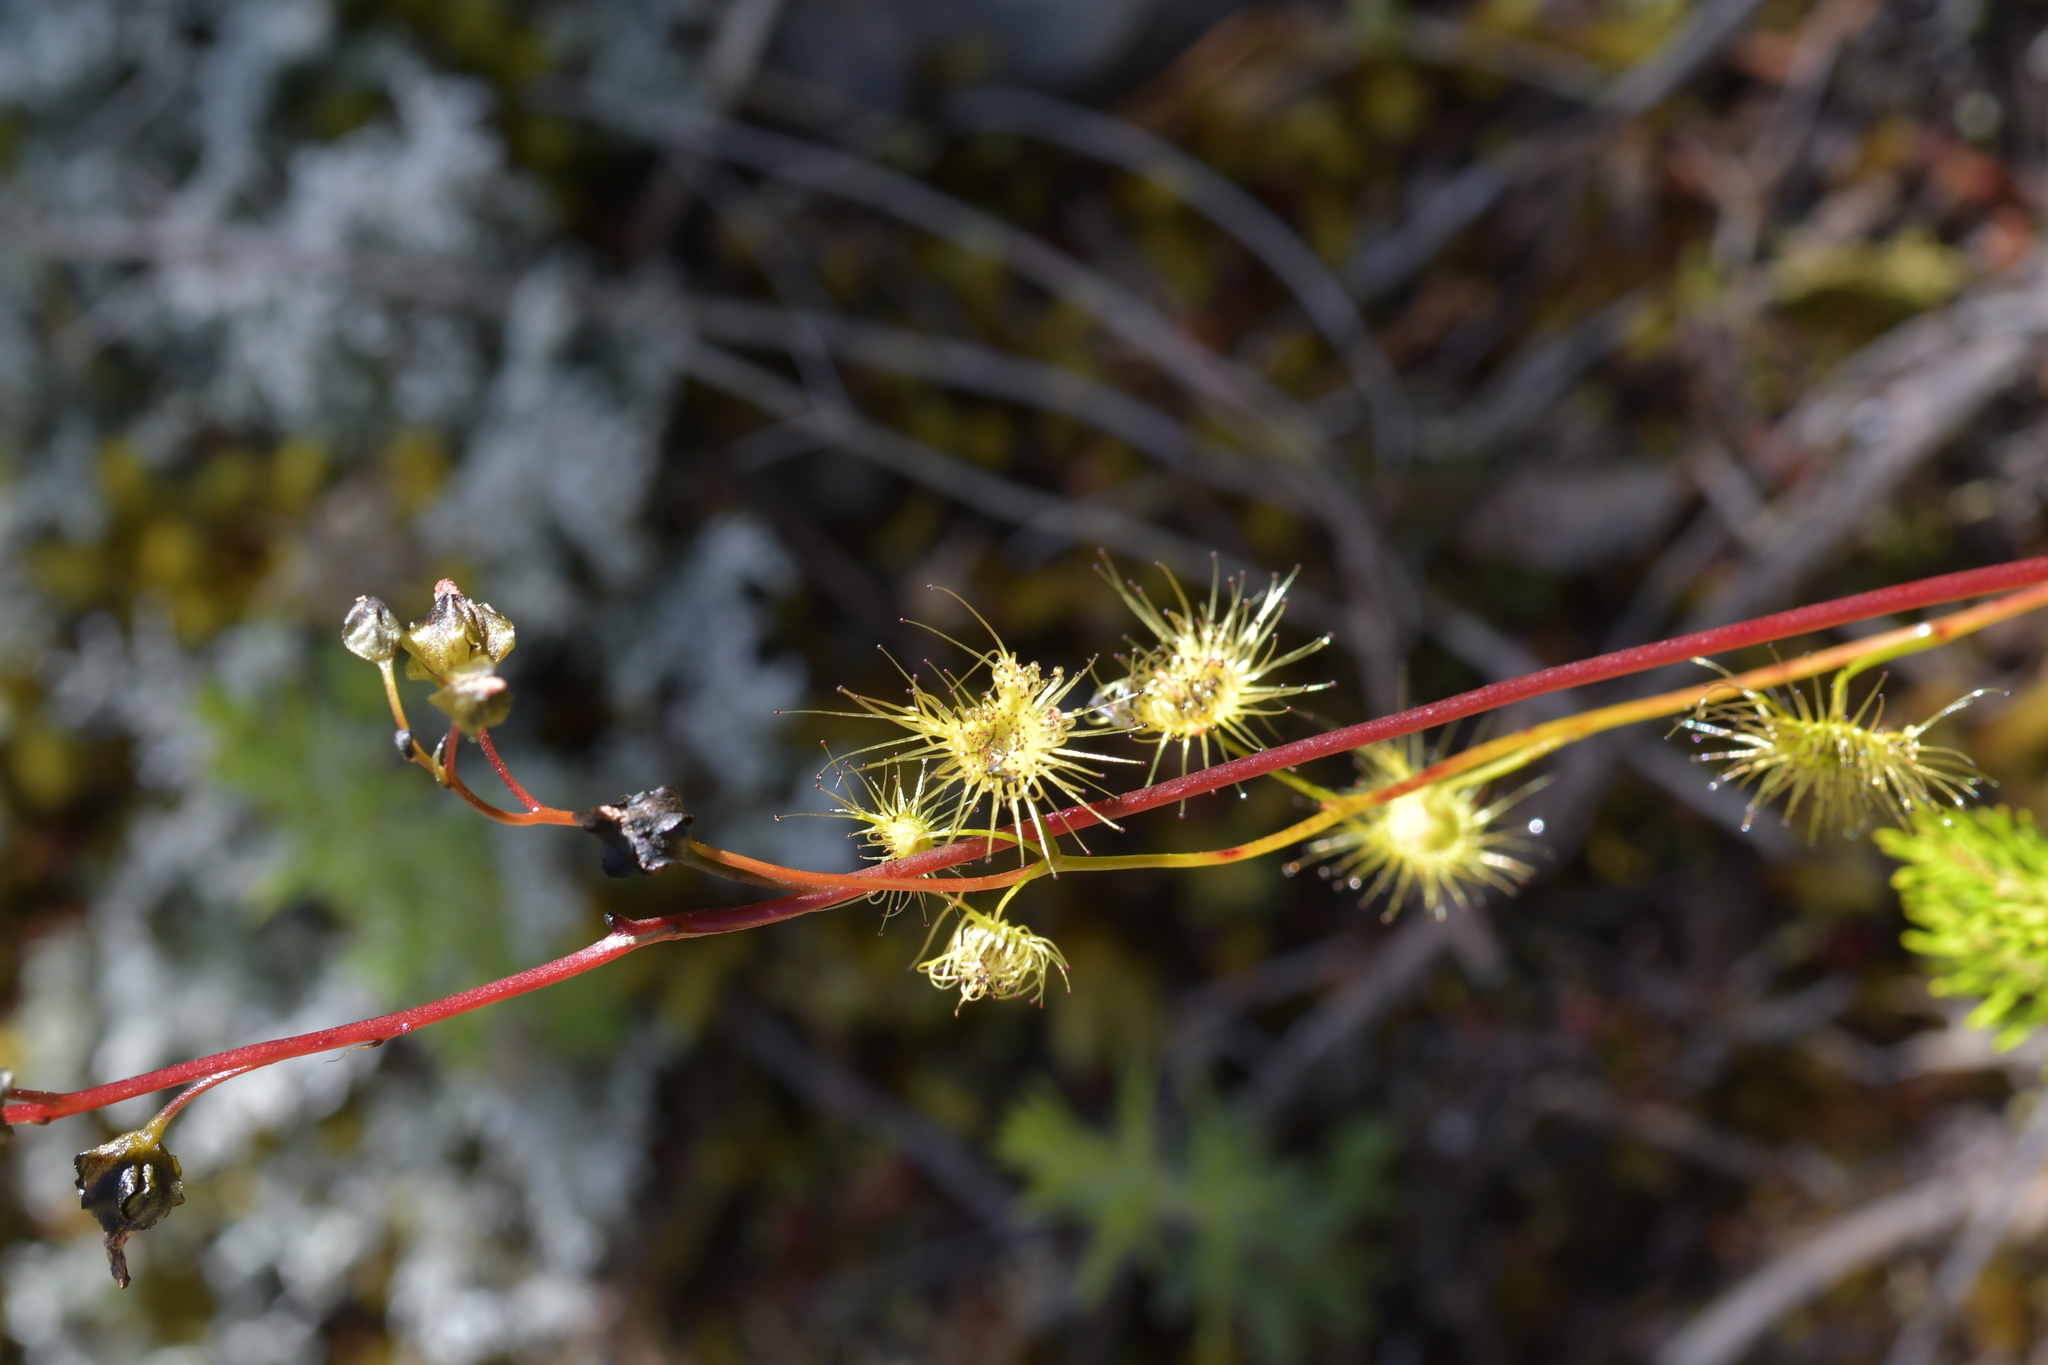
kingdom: Plantae
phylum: Tracheophyta
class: Magnoliopsida
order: Caryophyllales
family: Droseraceae
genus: Drosera
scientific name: Drosera peltata
